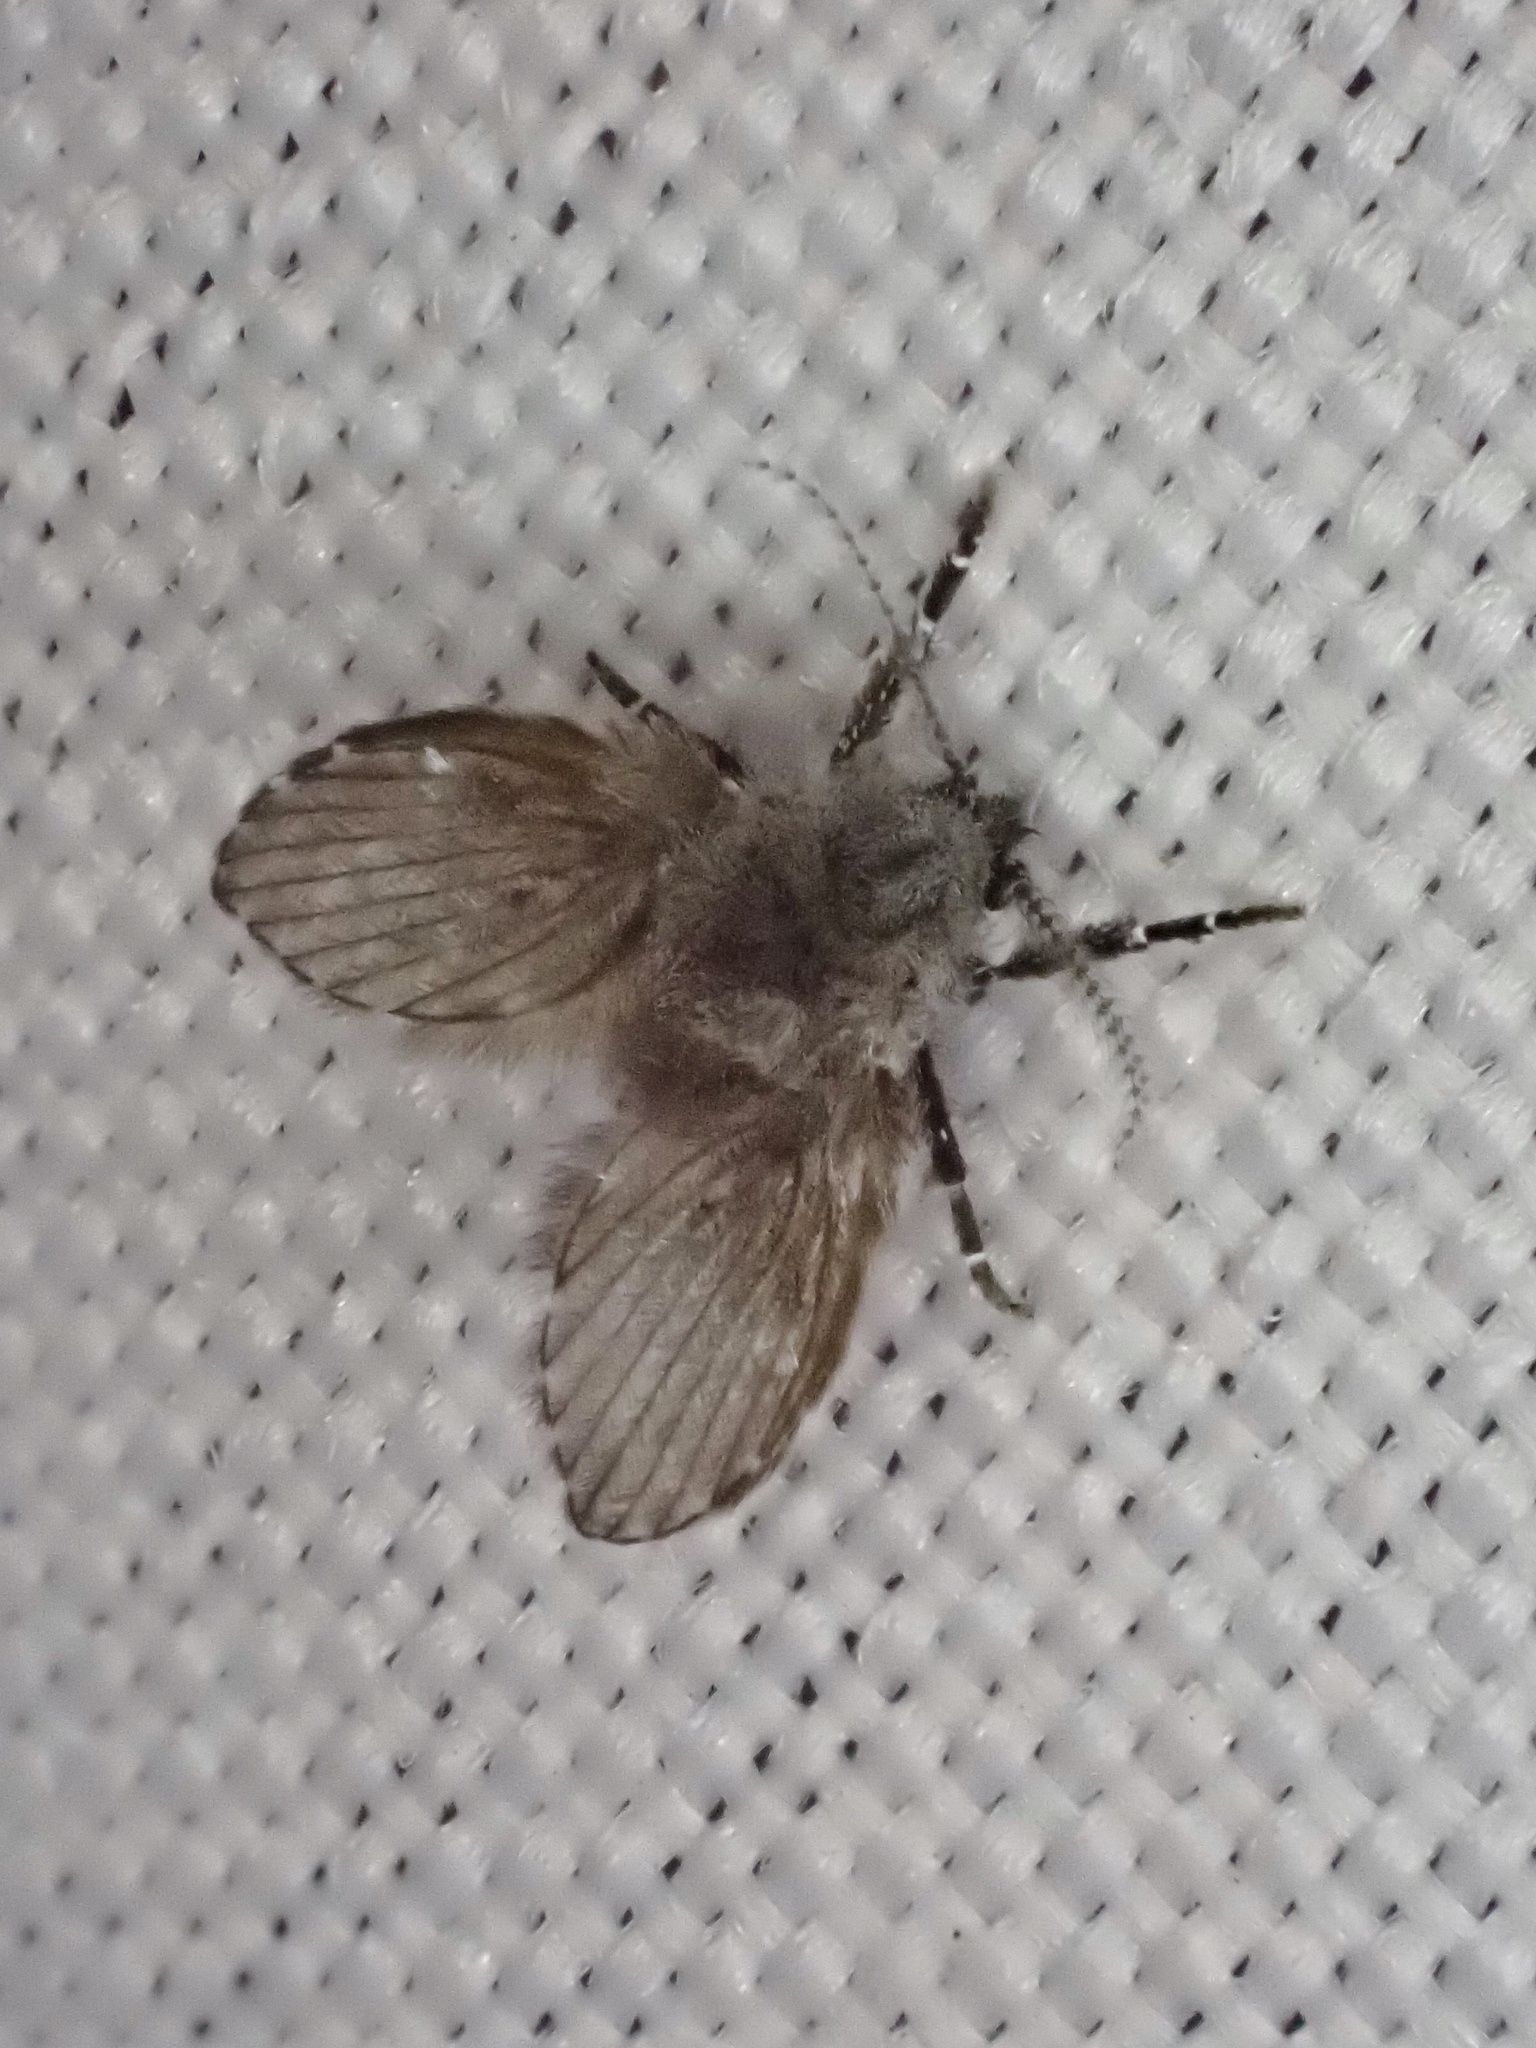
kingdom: Animalia
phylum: Arthropoda
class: Insecta
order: Diptera
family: Psychodidae
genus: Clogmia
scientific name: Clogmia albipunctatus
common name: White-spotted moth fly
